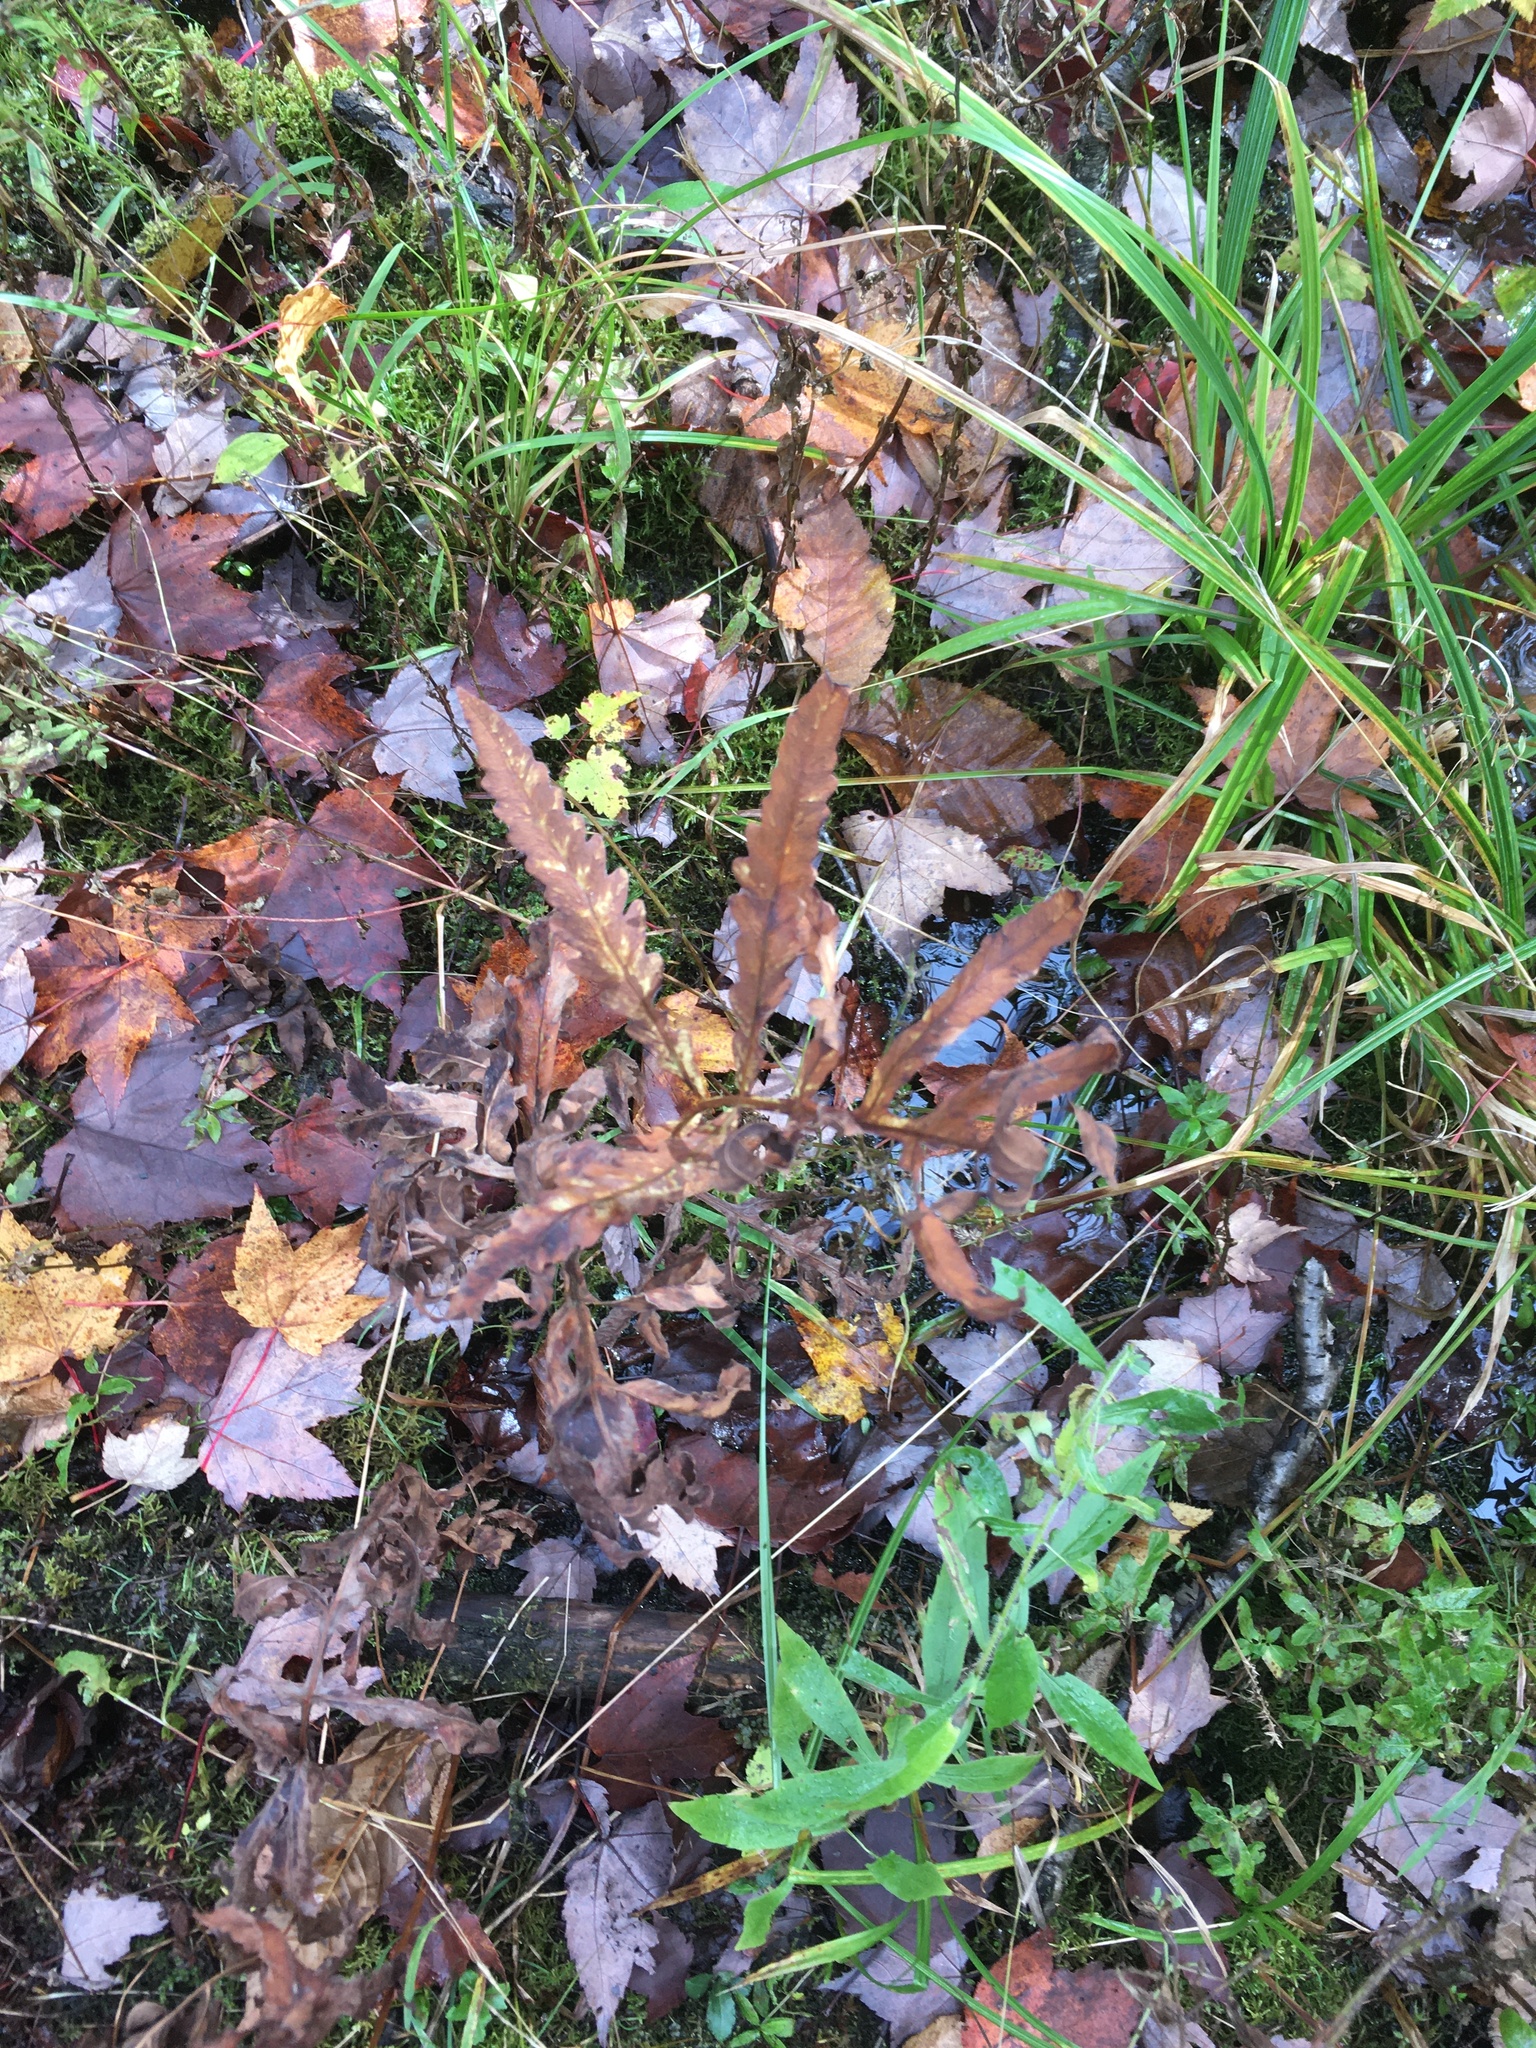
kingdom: Plantae
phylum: Tracheophyta
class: Polypodiopsida
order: Polypodiales
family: Onocleaceae
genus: Onoclea
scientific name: Onoclea sensibilis
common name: Sensitive fern
